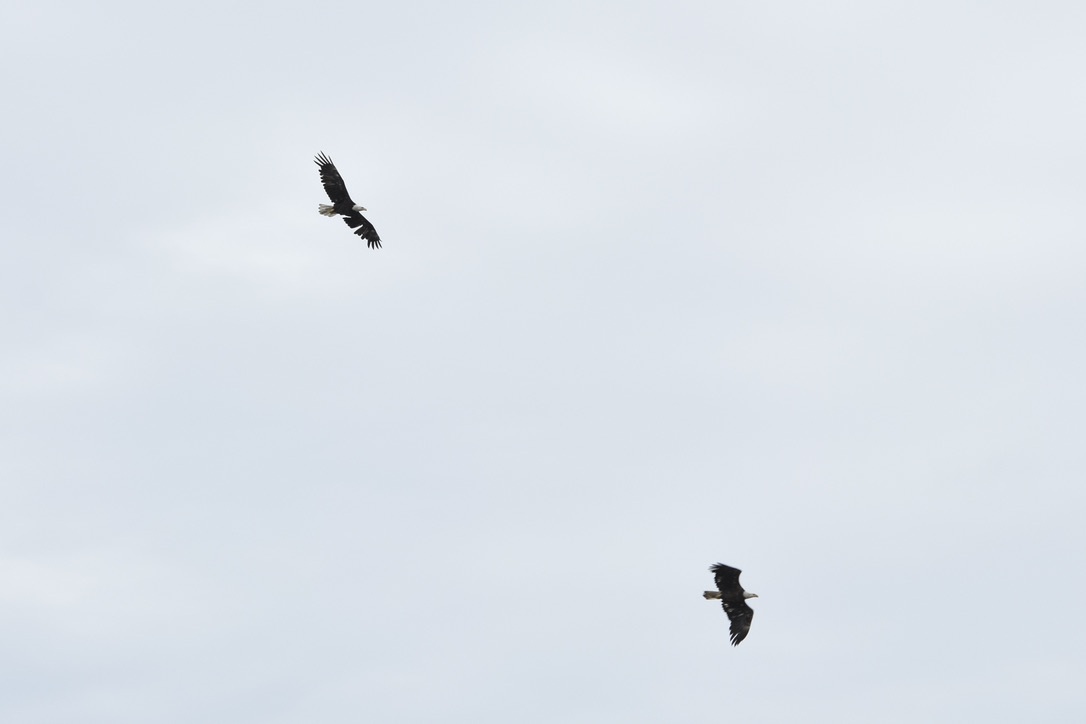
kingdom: Animalia
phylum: Chordata
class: Aves
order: Accipitriformes
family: Accipitridae
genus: Haliaeetus
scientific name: Haliaeetus leucocephalus
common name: Bald eagle
